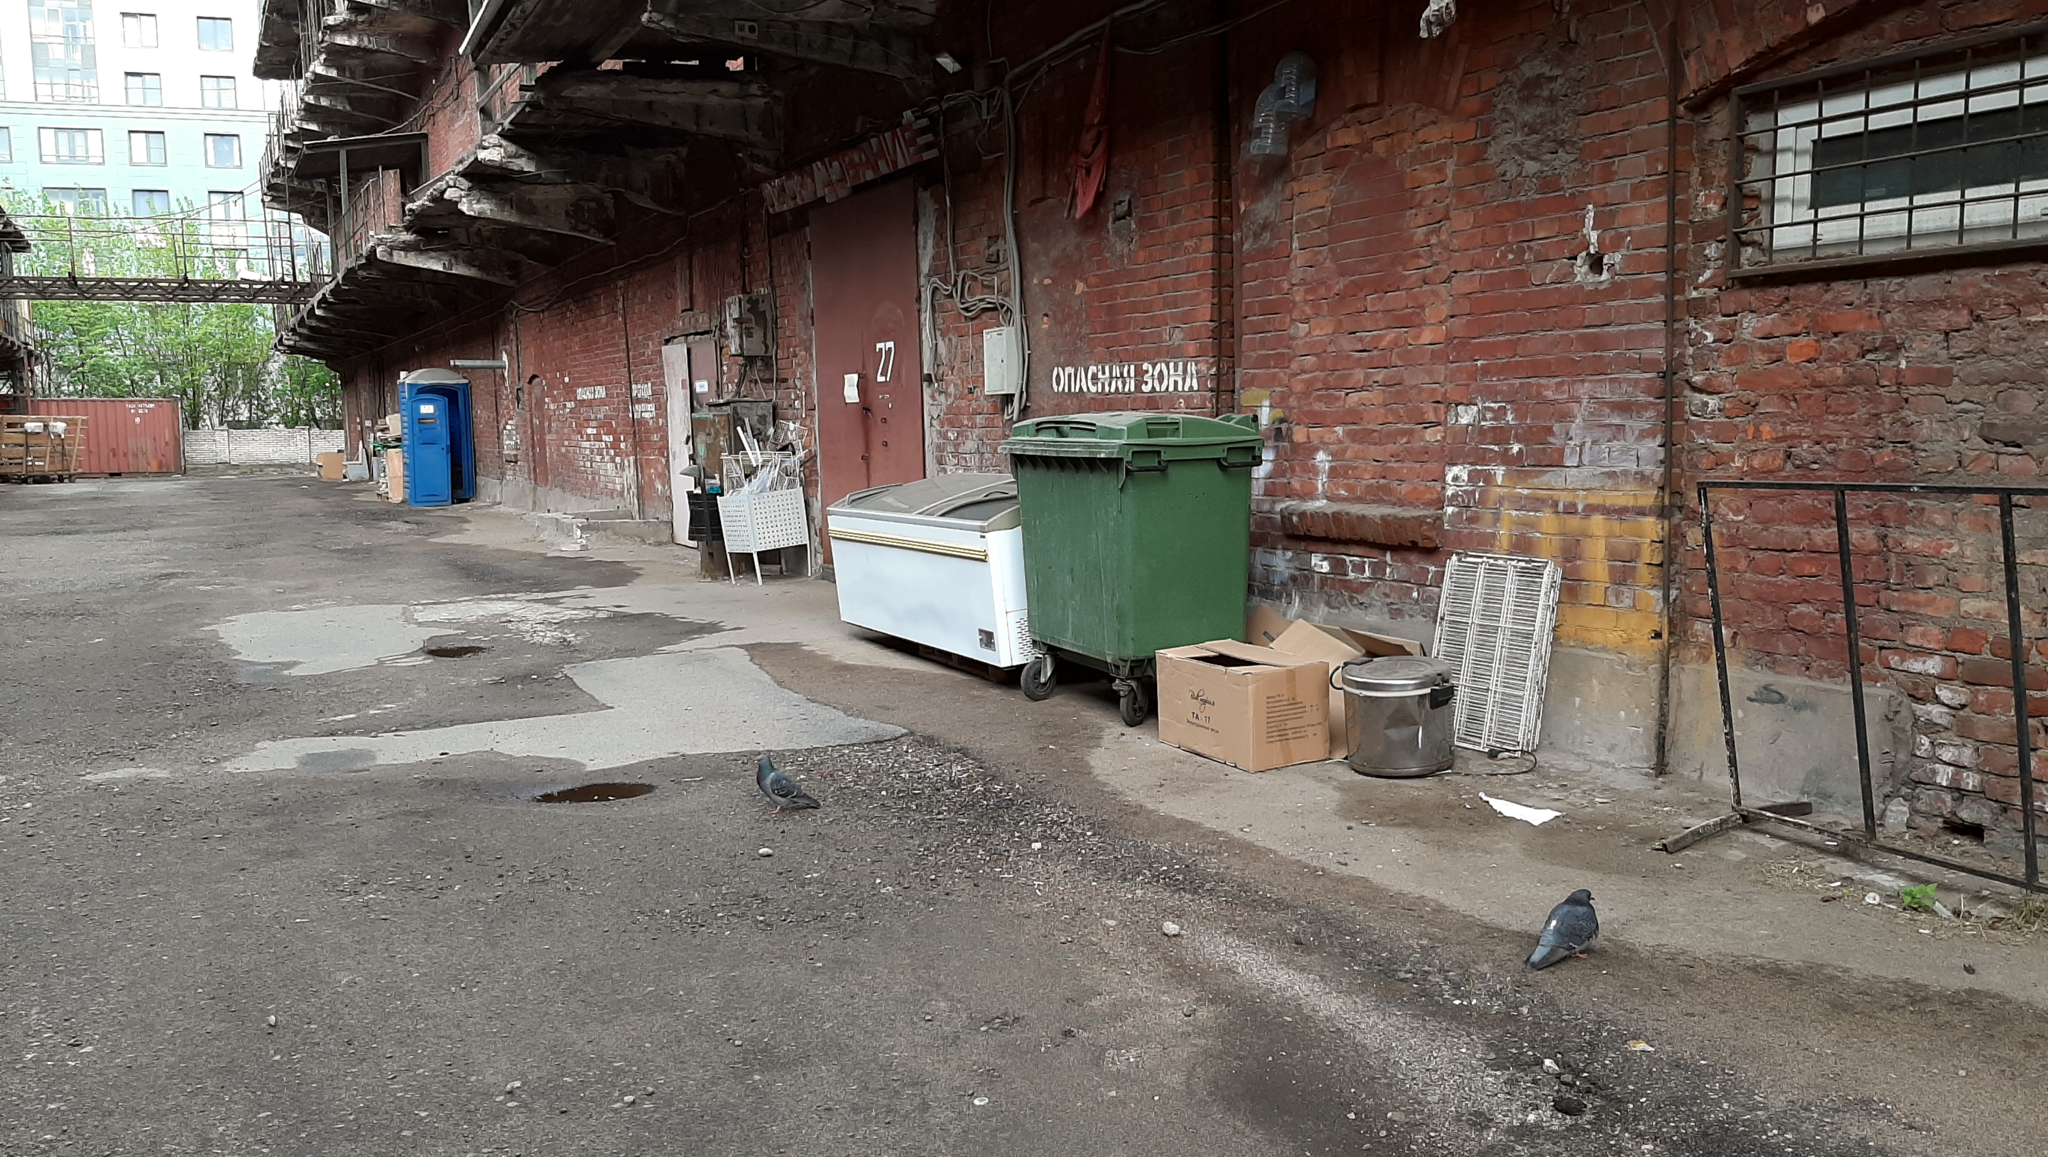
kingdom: Animalia
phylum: Chordata
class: Aves
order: Columbiformes
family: Columbidae
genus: Columba
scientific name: Columba livia
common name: Rock pigeon
